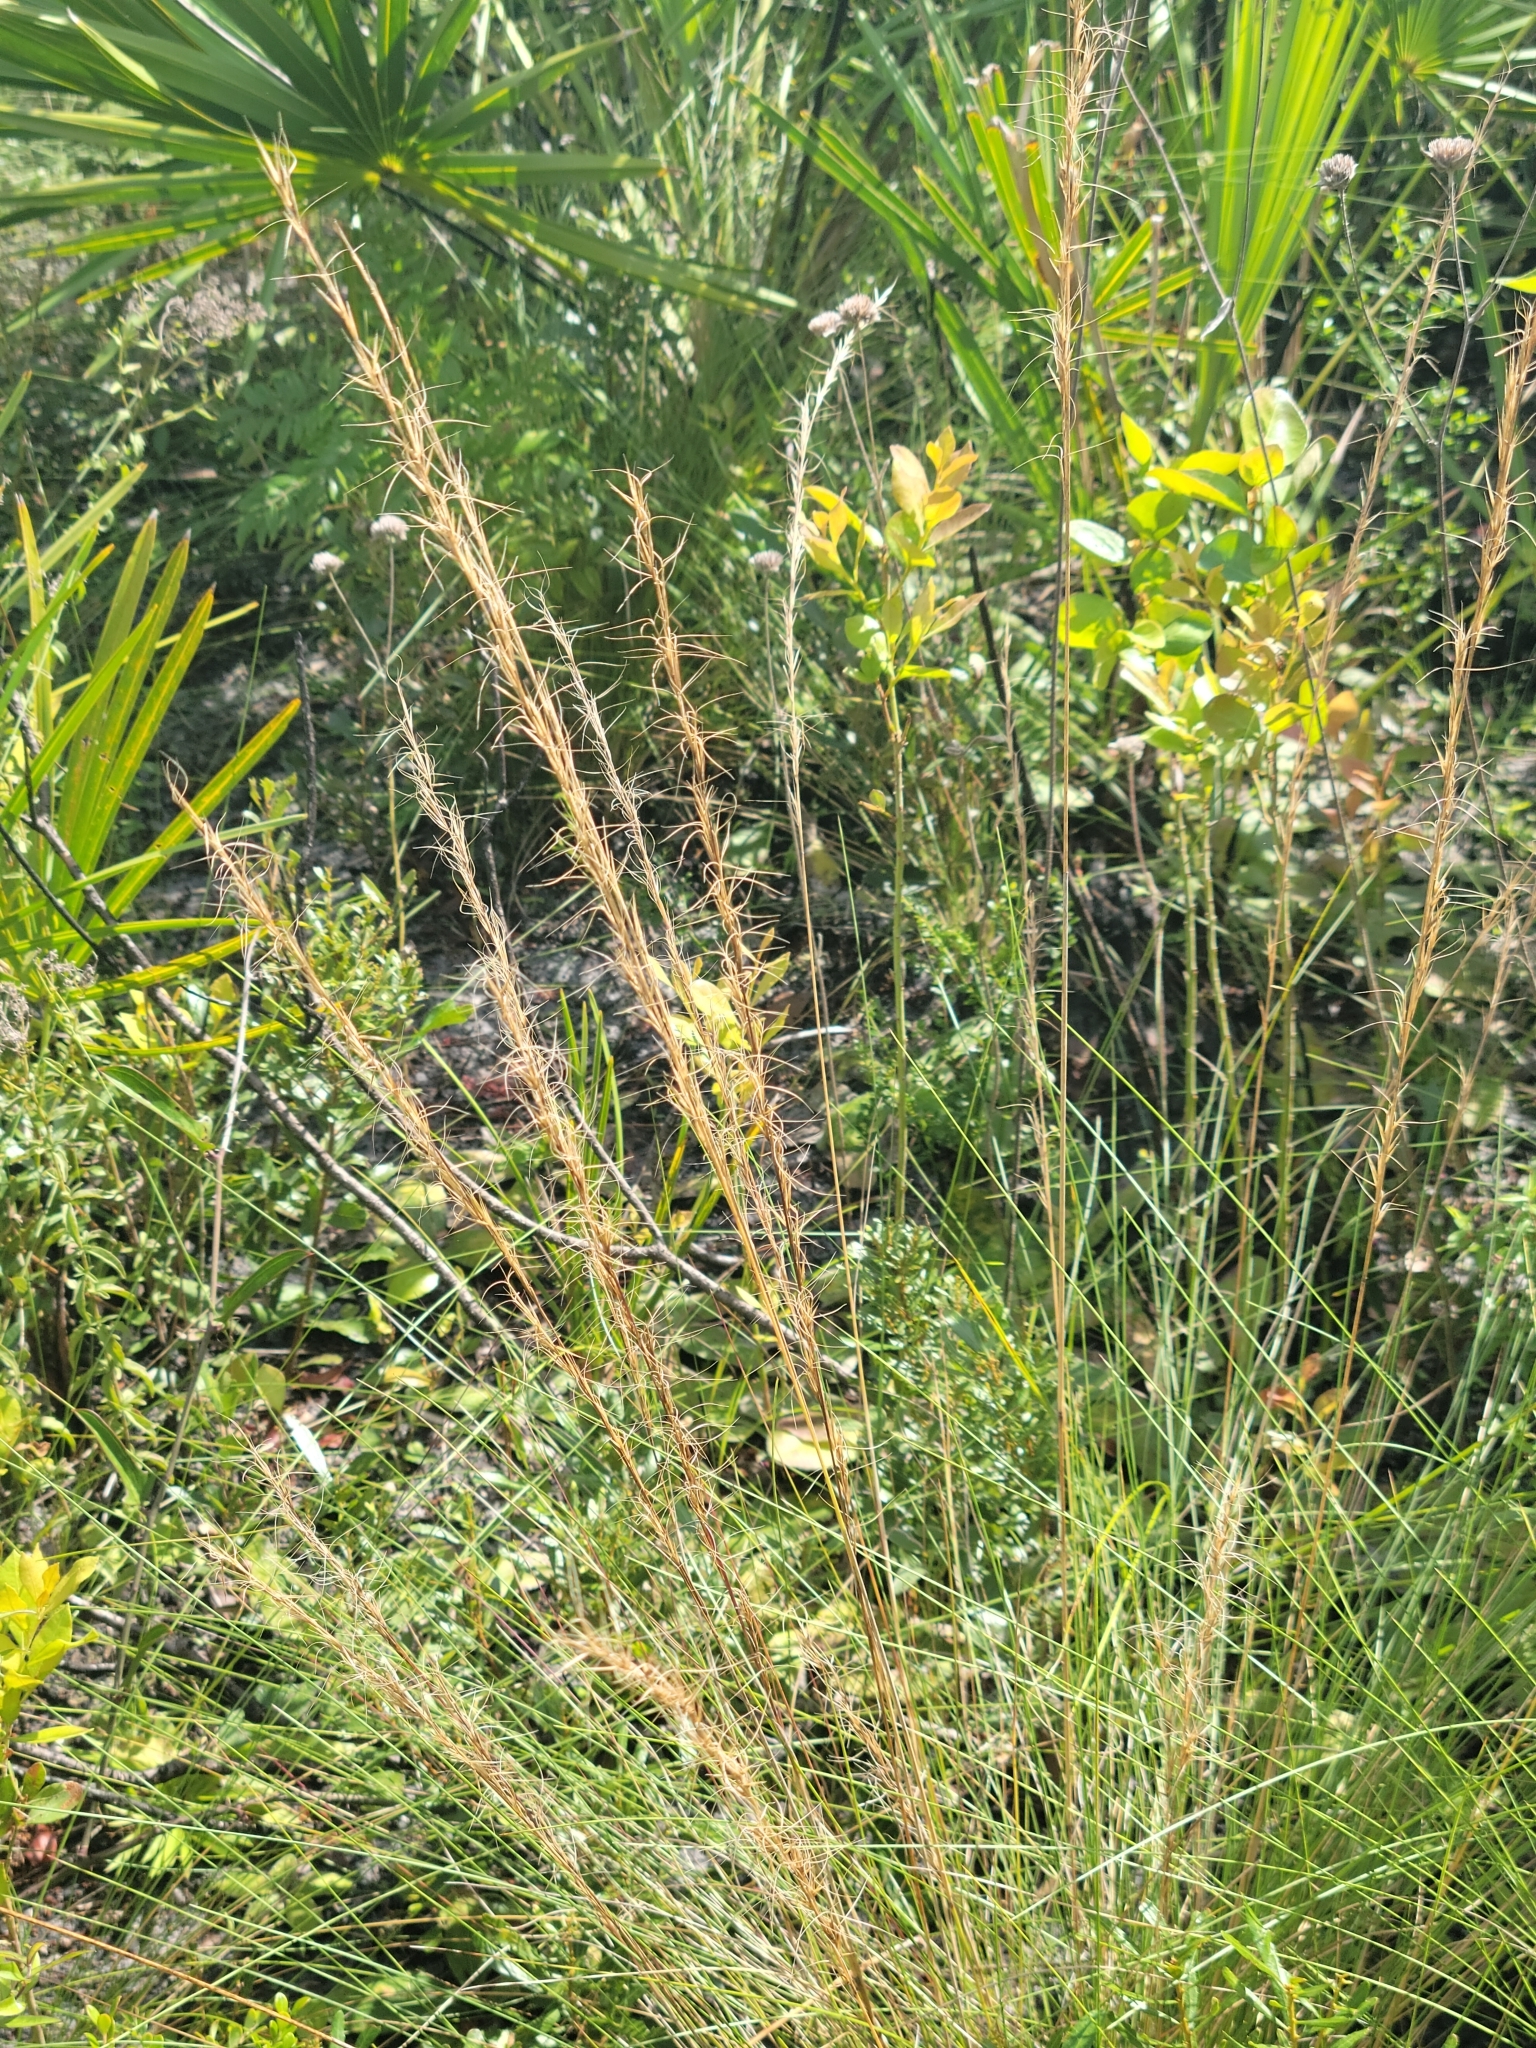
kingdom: Plantae
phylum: Tracheophyta
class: Liliopsida
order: Poales
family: Poaceae
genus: Aristida
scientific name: Aristida beyrichiana
